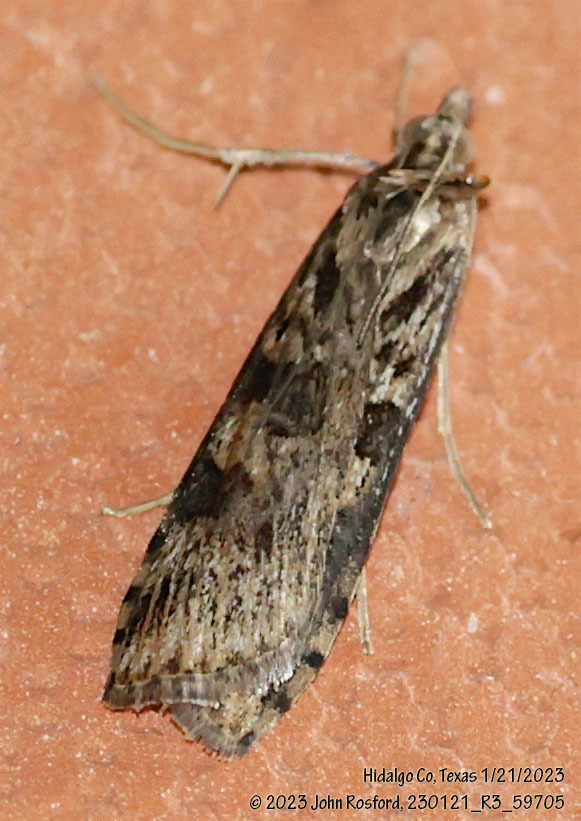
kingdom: Animalia
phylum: Arthropoda
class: Insecta
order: Lepidoptera
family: Crambidae
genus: Nomophila
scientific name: Nomophila nearctica
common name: American rush veneer
